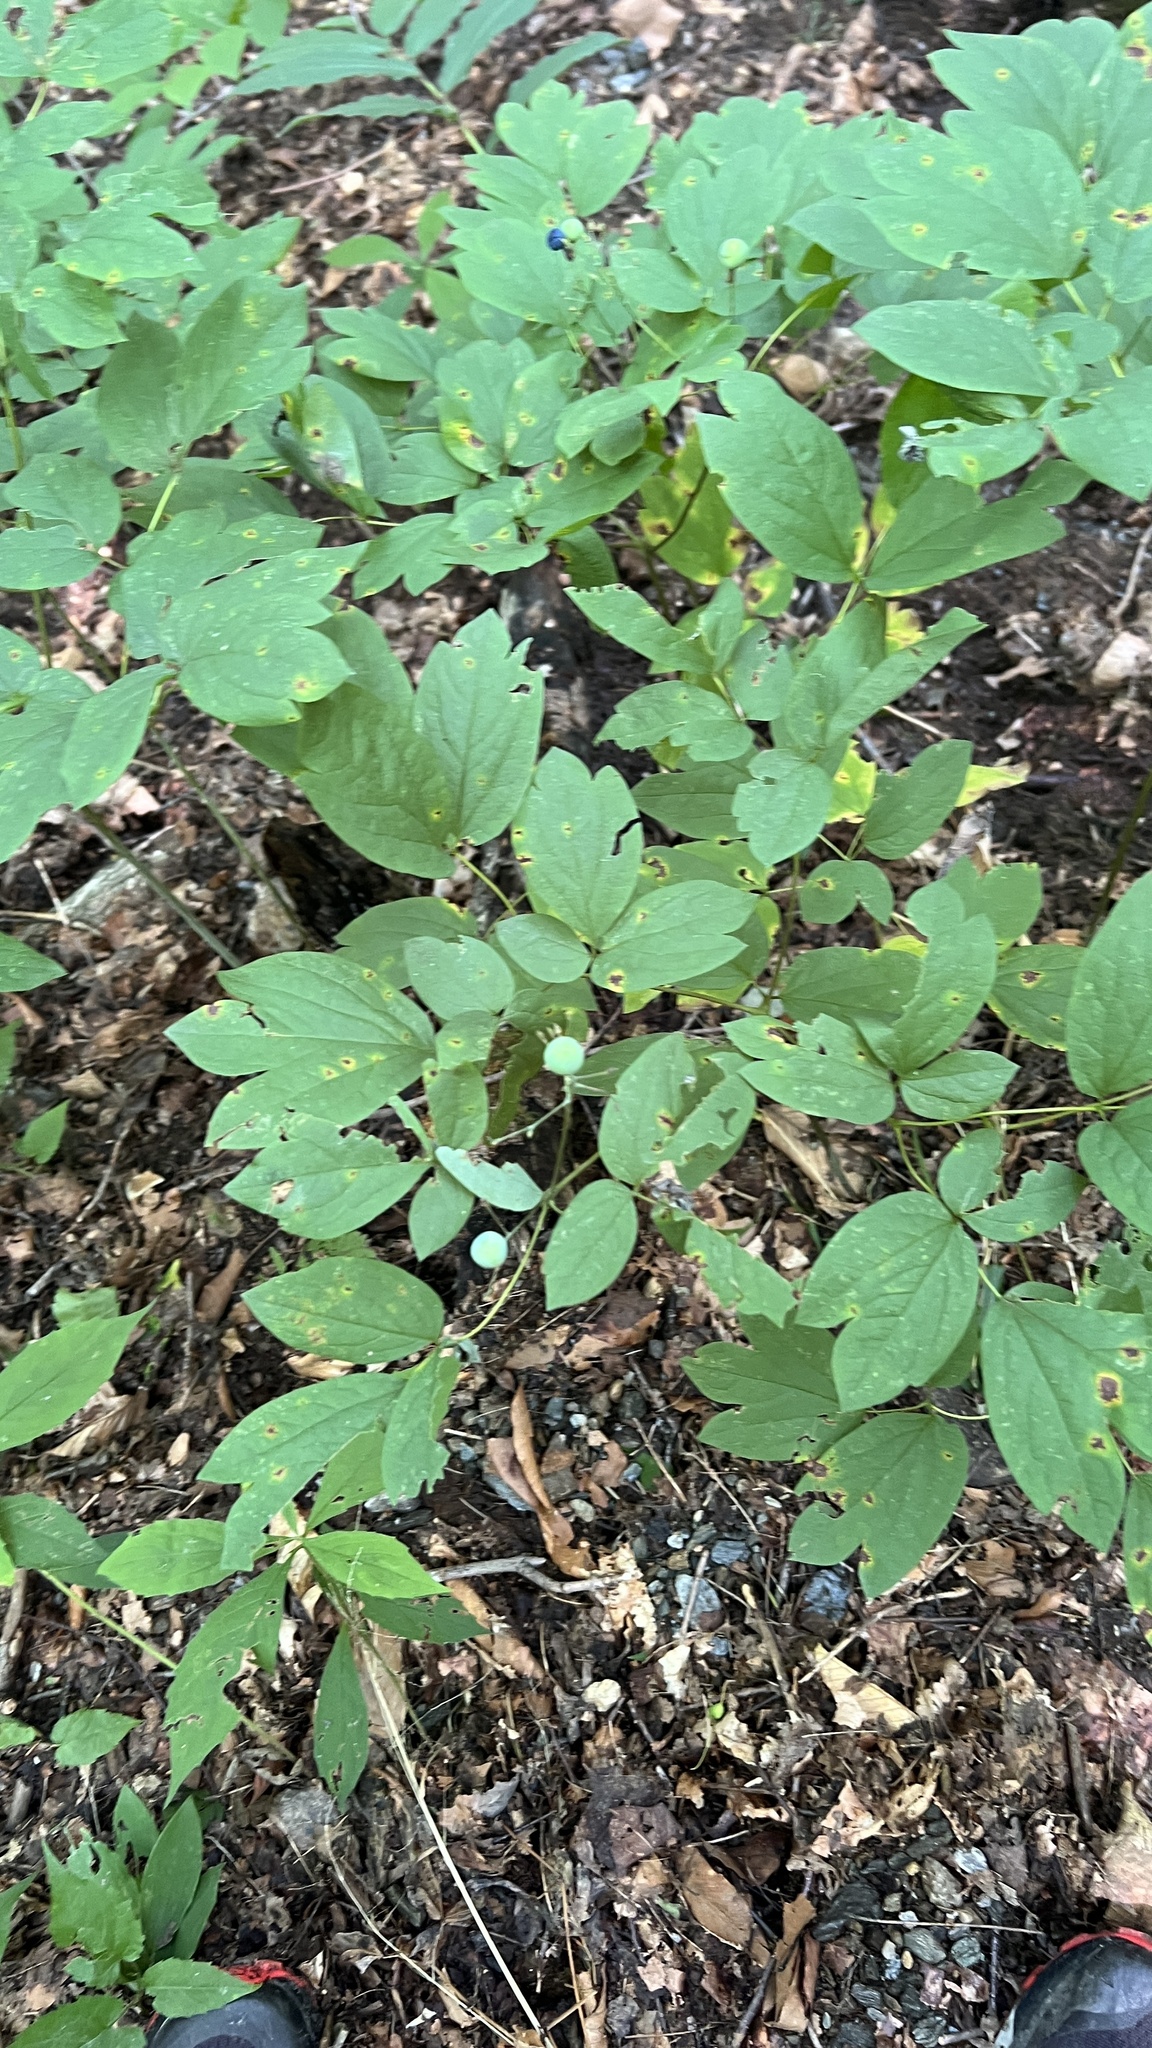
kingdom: Plantae
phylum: Tracheophyta
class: Magnoliopsida
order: Ranunculales
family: Berberidaceae
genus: Caulophyllum
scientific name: Caulophyllum
